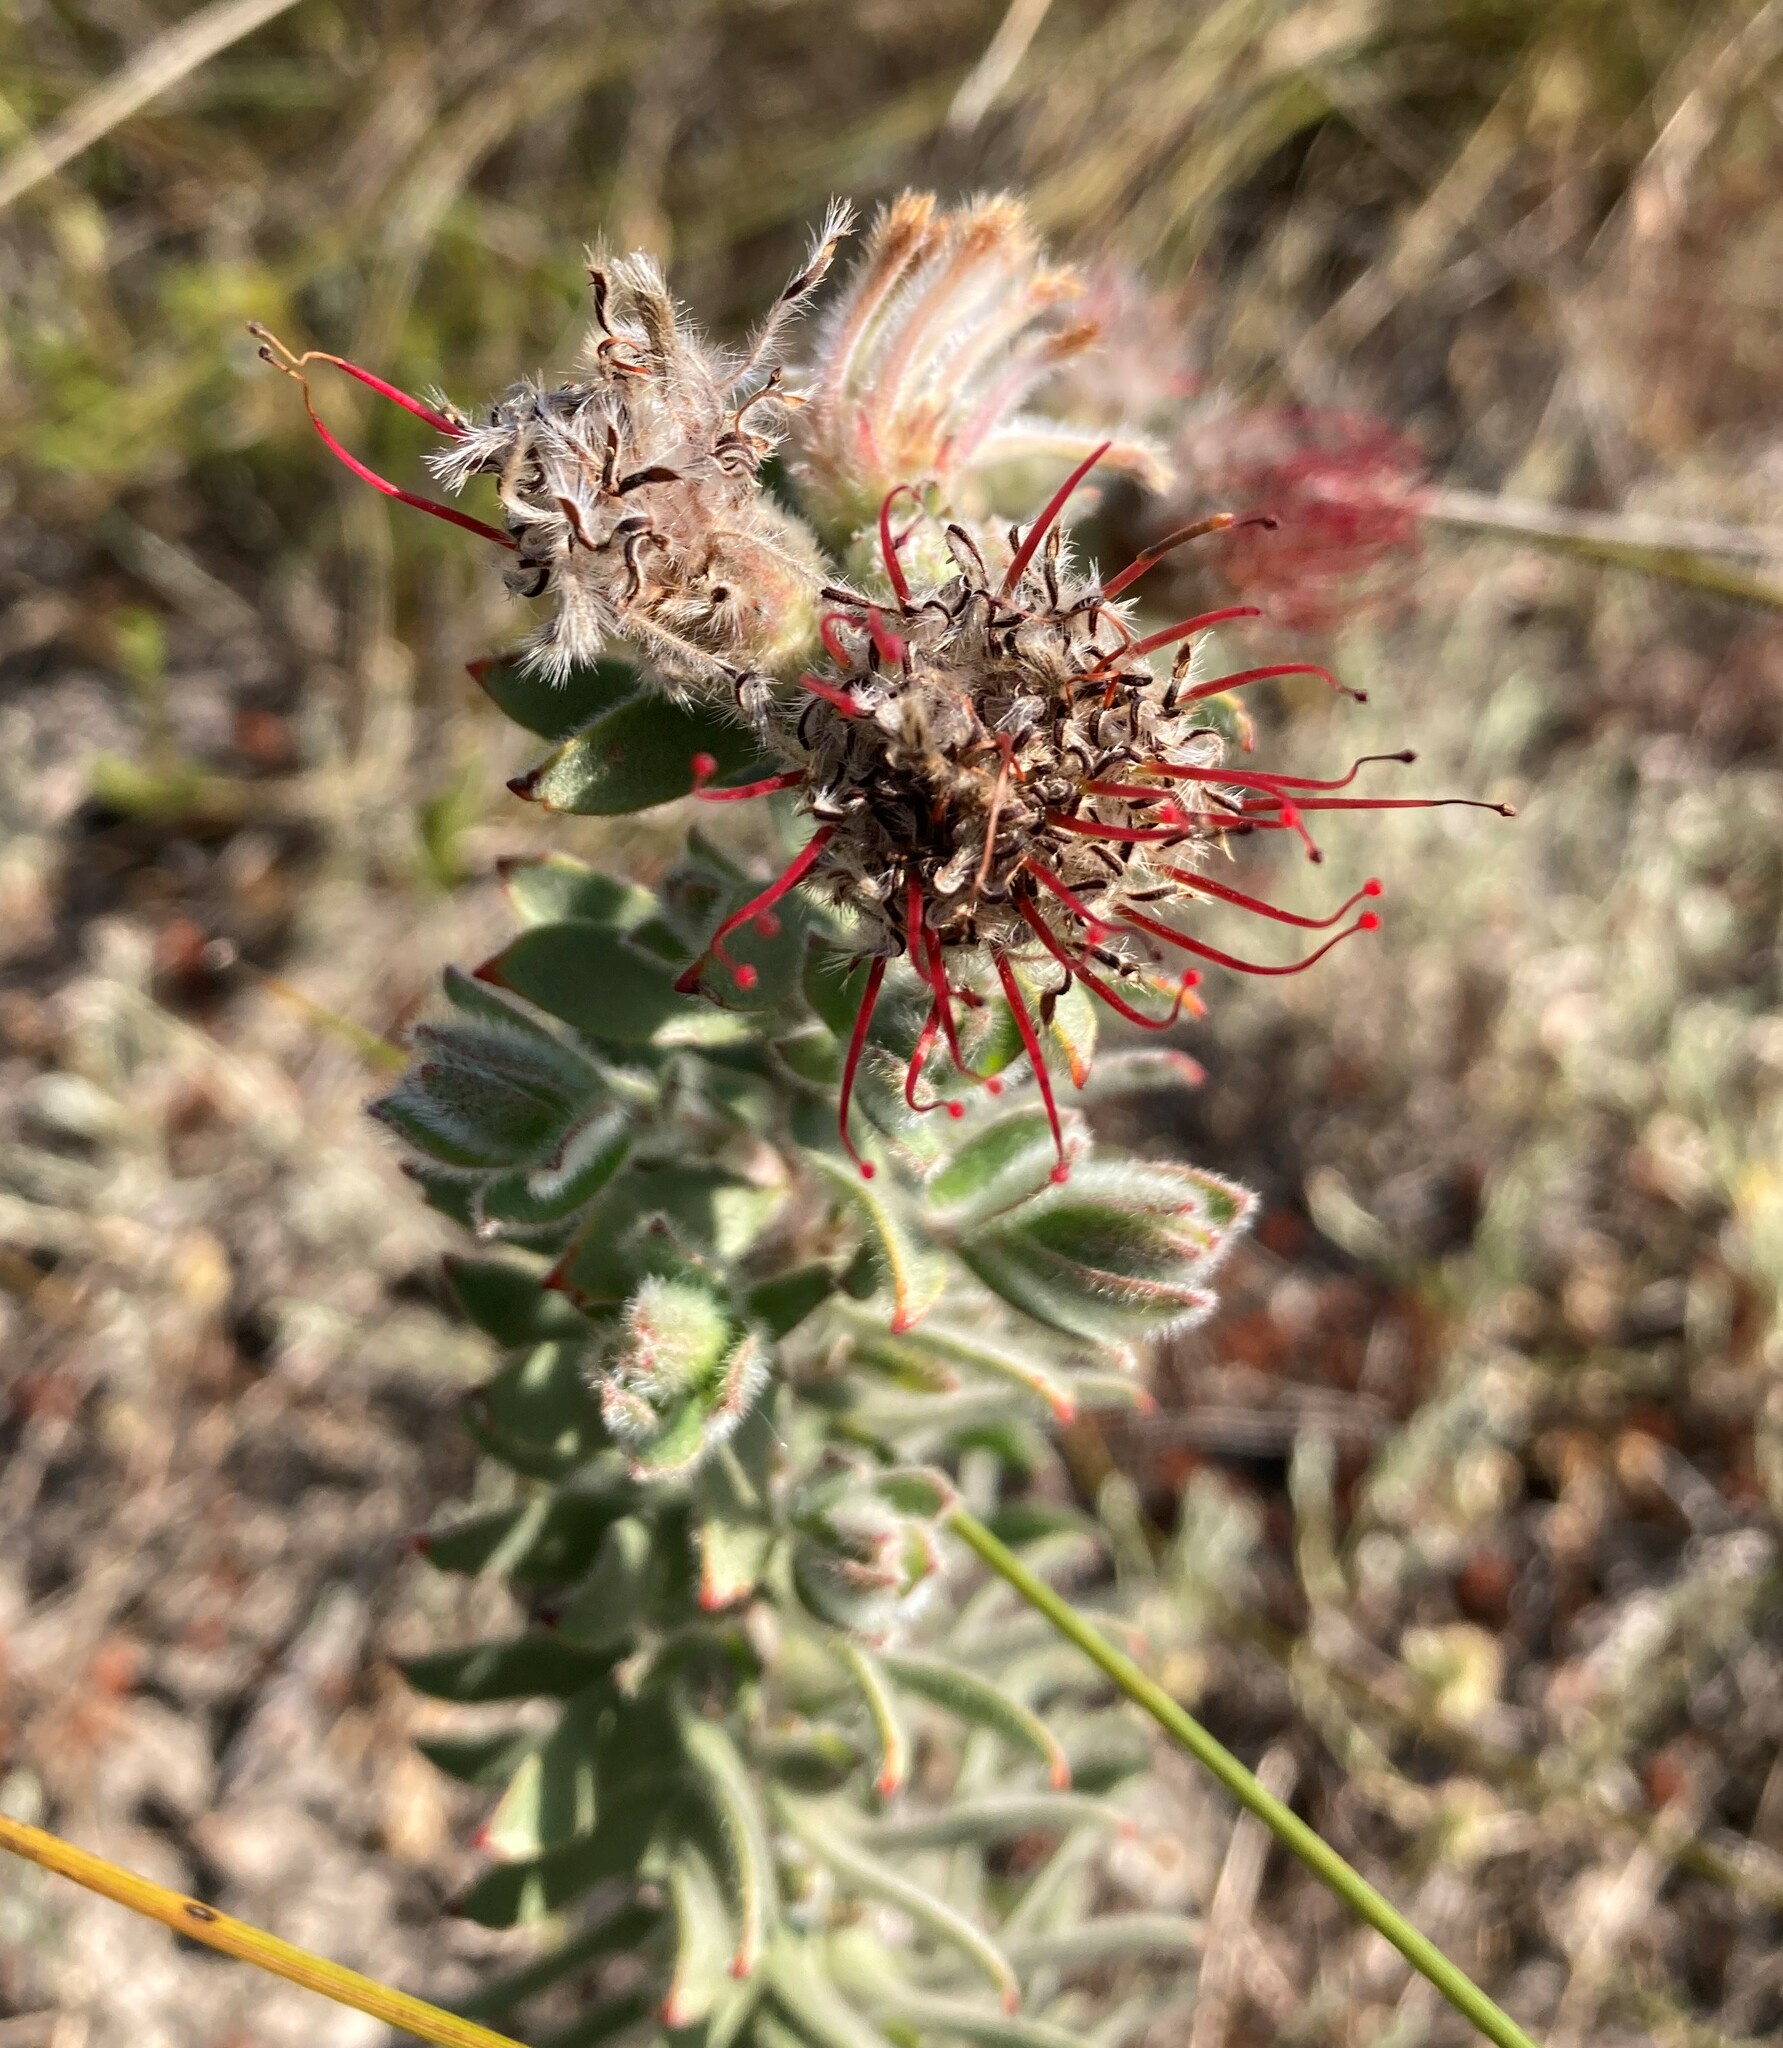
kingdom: Plantae
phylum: Tracheophyta
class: Magnoliopsida
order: Proteales
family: Proteaceae
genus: Leucospermum
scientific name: Leucospermum calligerum
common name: Arid pincushion
